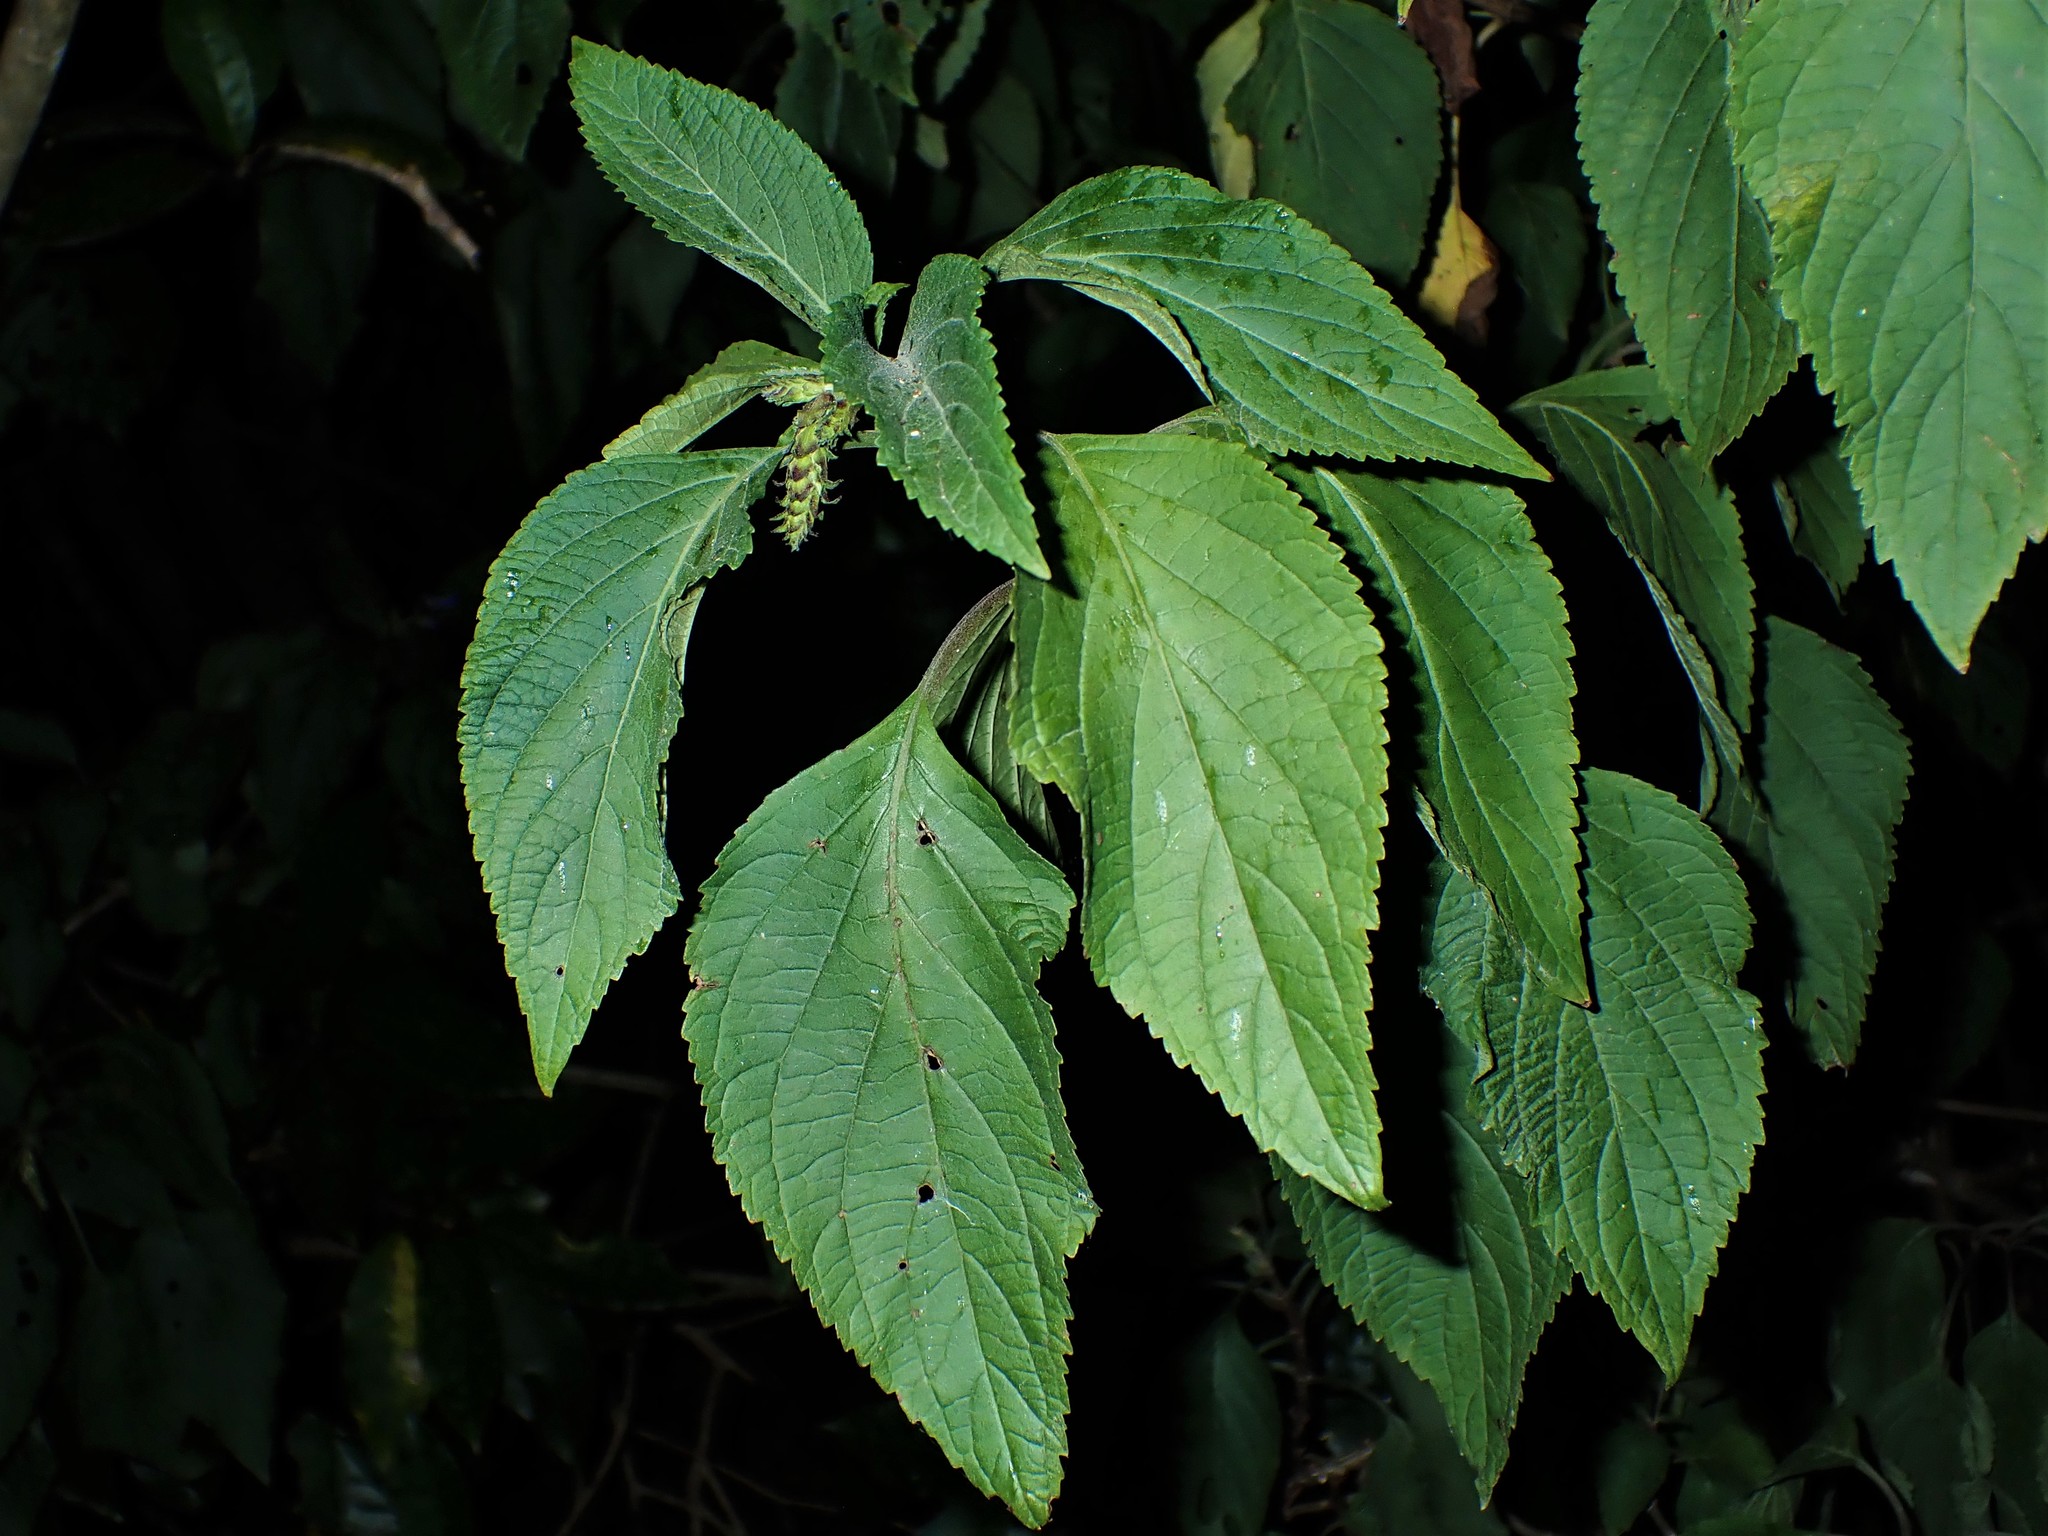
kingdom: Plantae
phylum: Tracheophyta
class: Magnoliopsida
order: Lamiales
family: Lamiaceae
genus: Coleus
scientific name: Coleus barbatus
